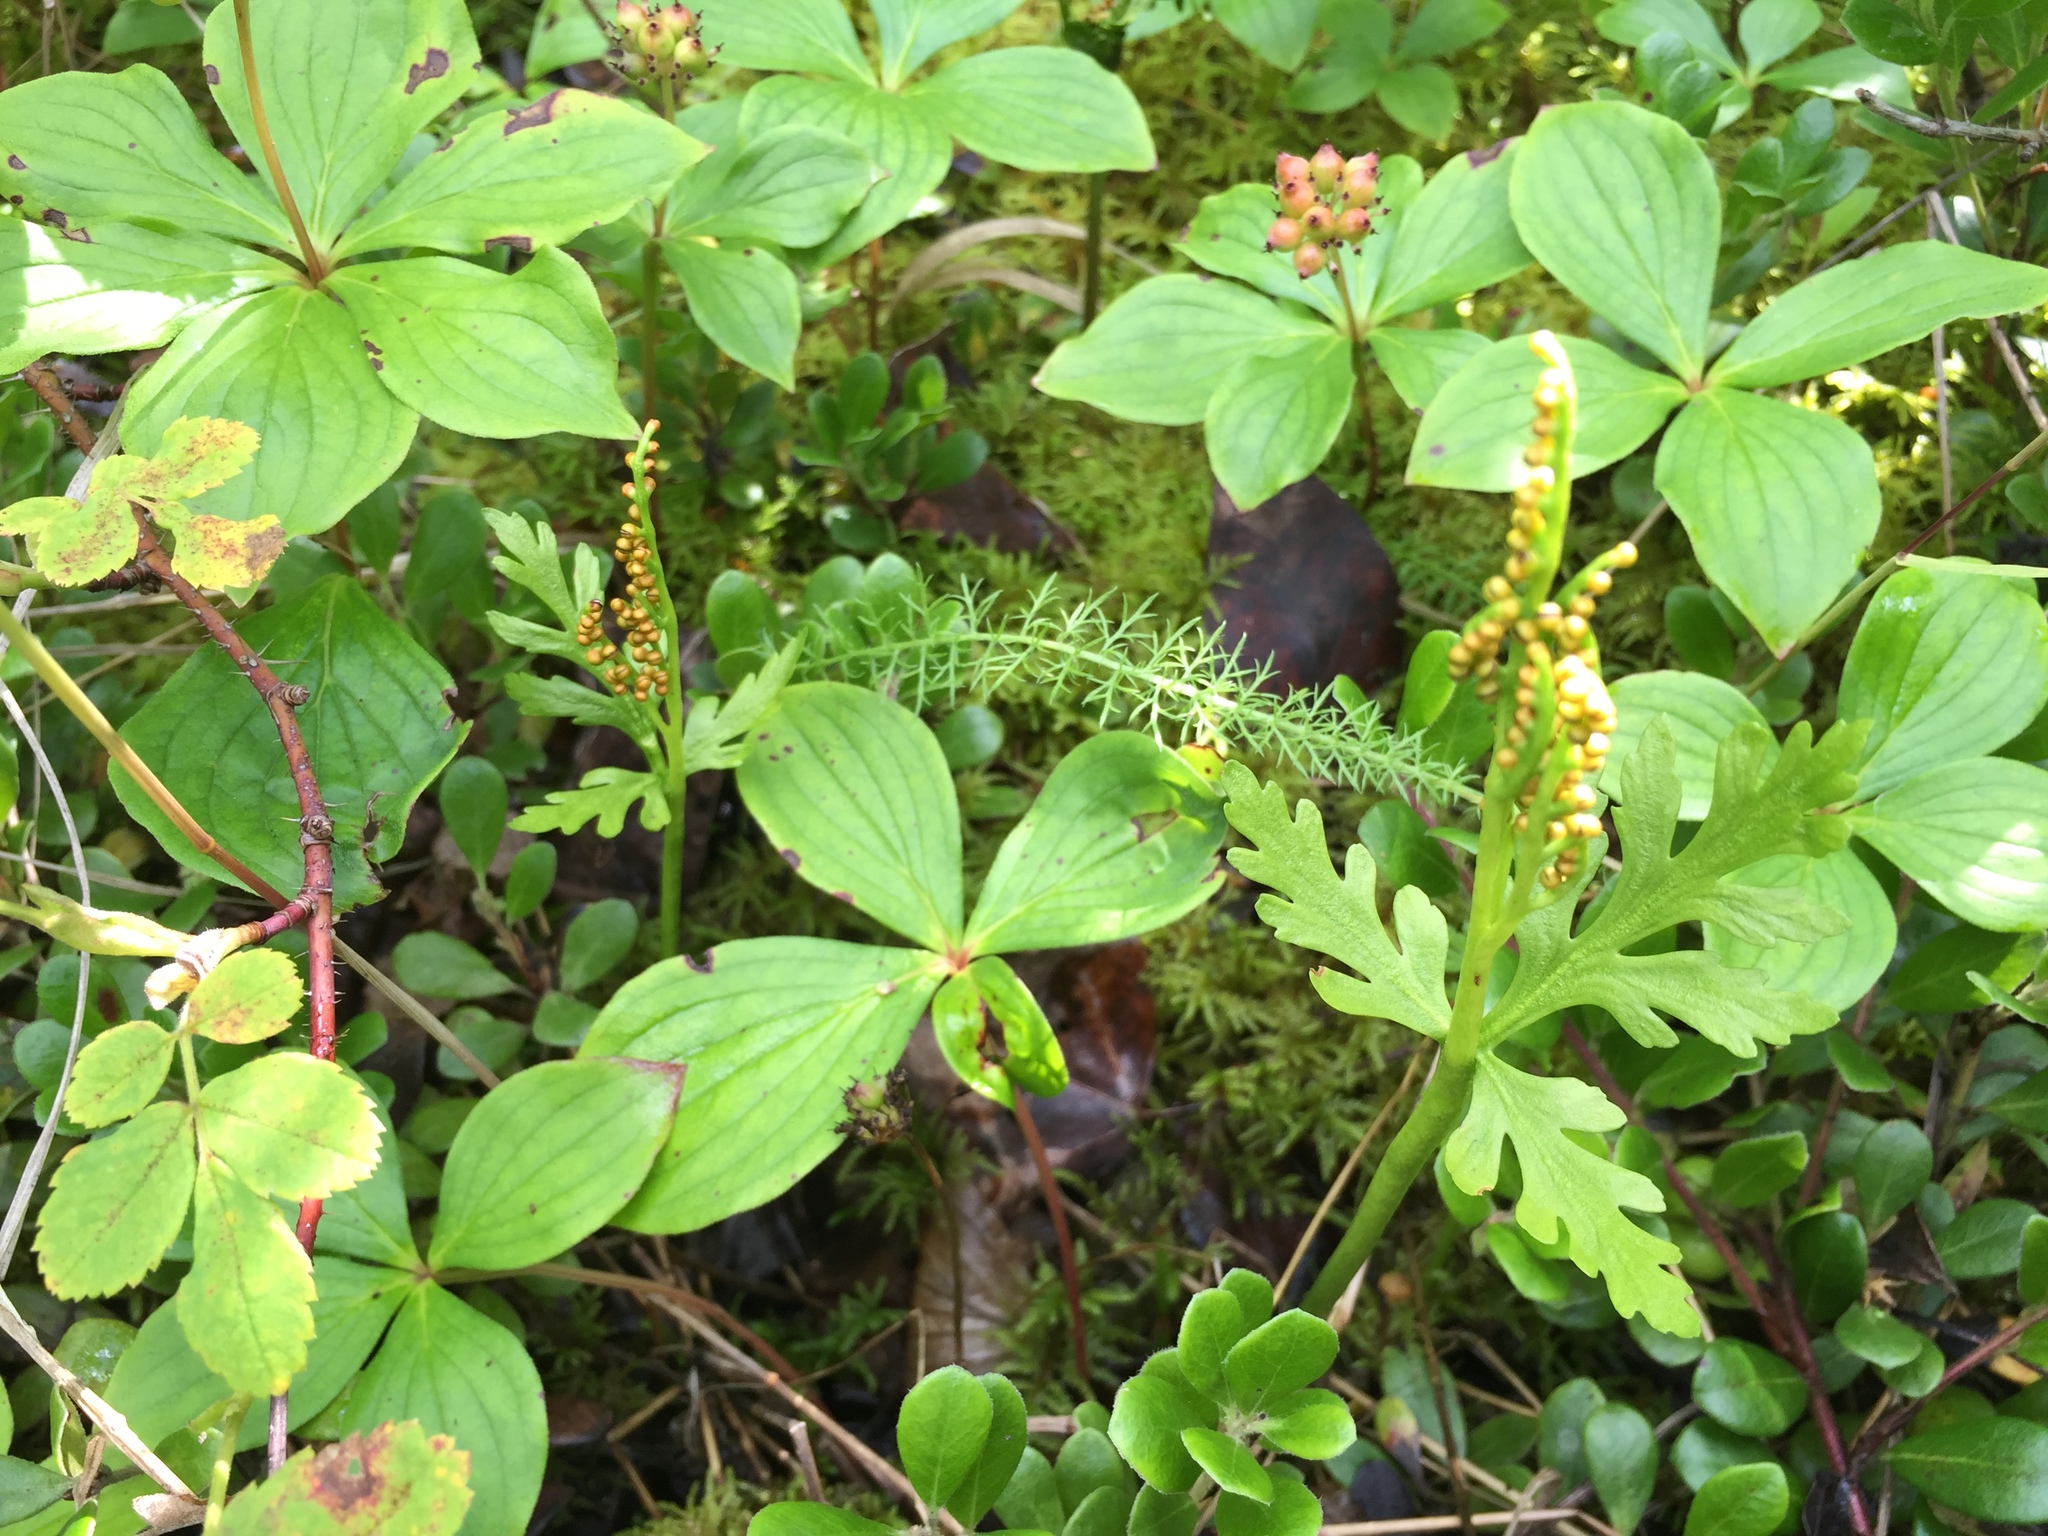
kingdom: Plantae
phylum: Tracheophyta
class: Polypodiopsida
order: Ophioglossales
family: Ophioglossaceae
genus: Botrychium
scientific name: Botrychium lanceolatum
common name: Lance-leaved moonwort
